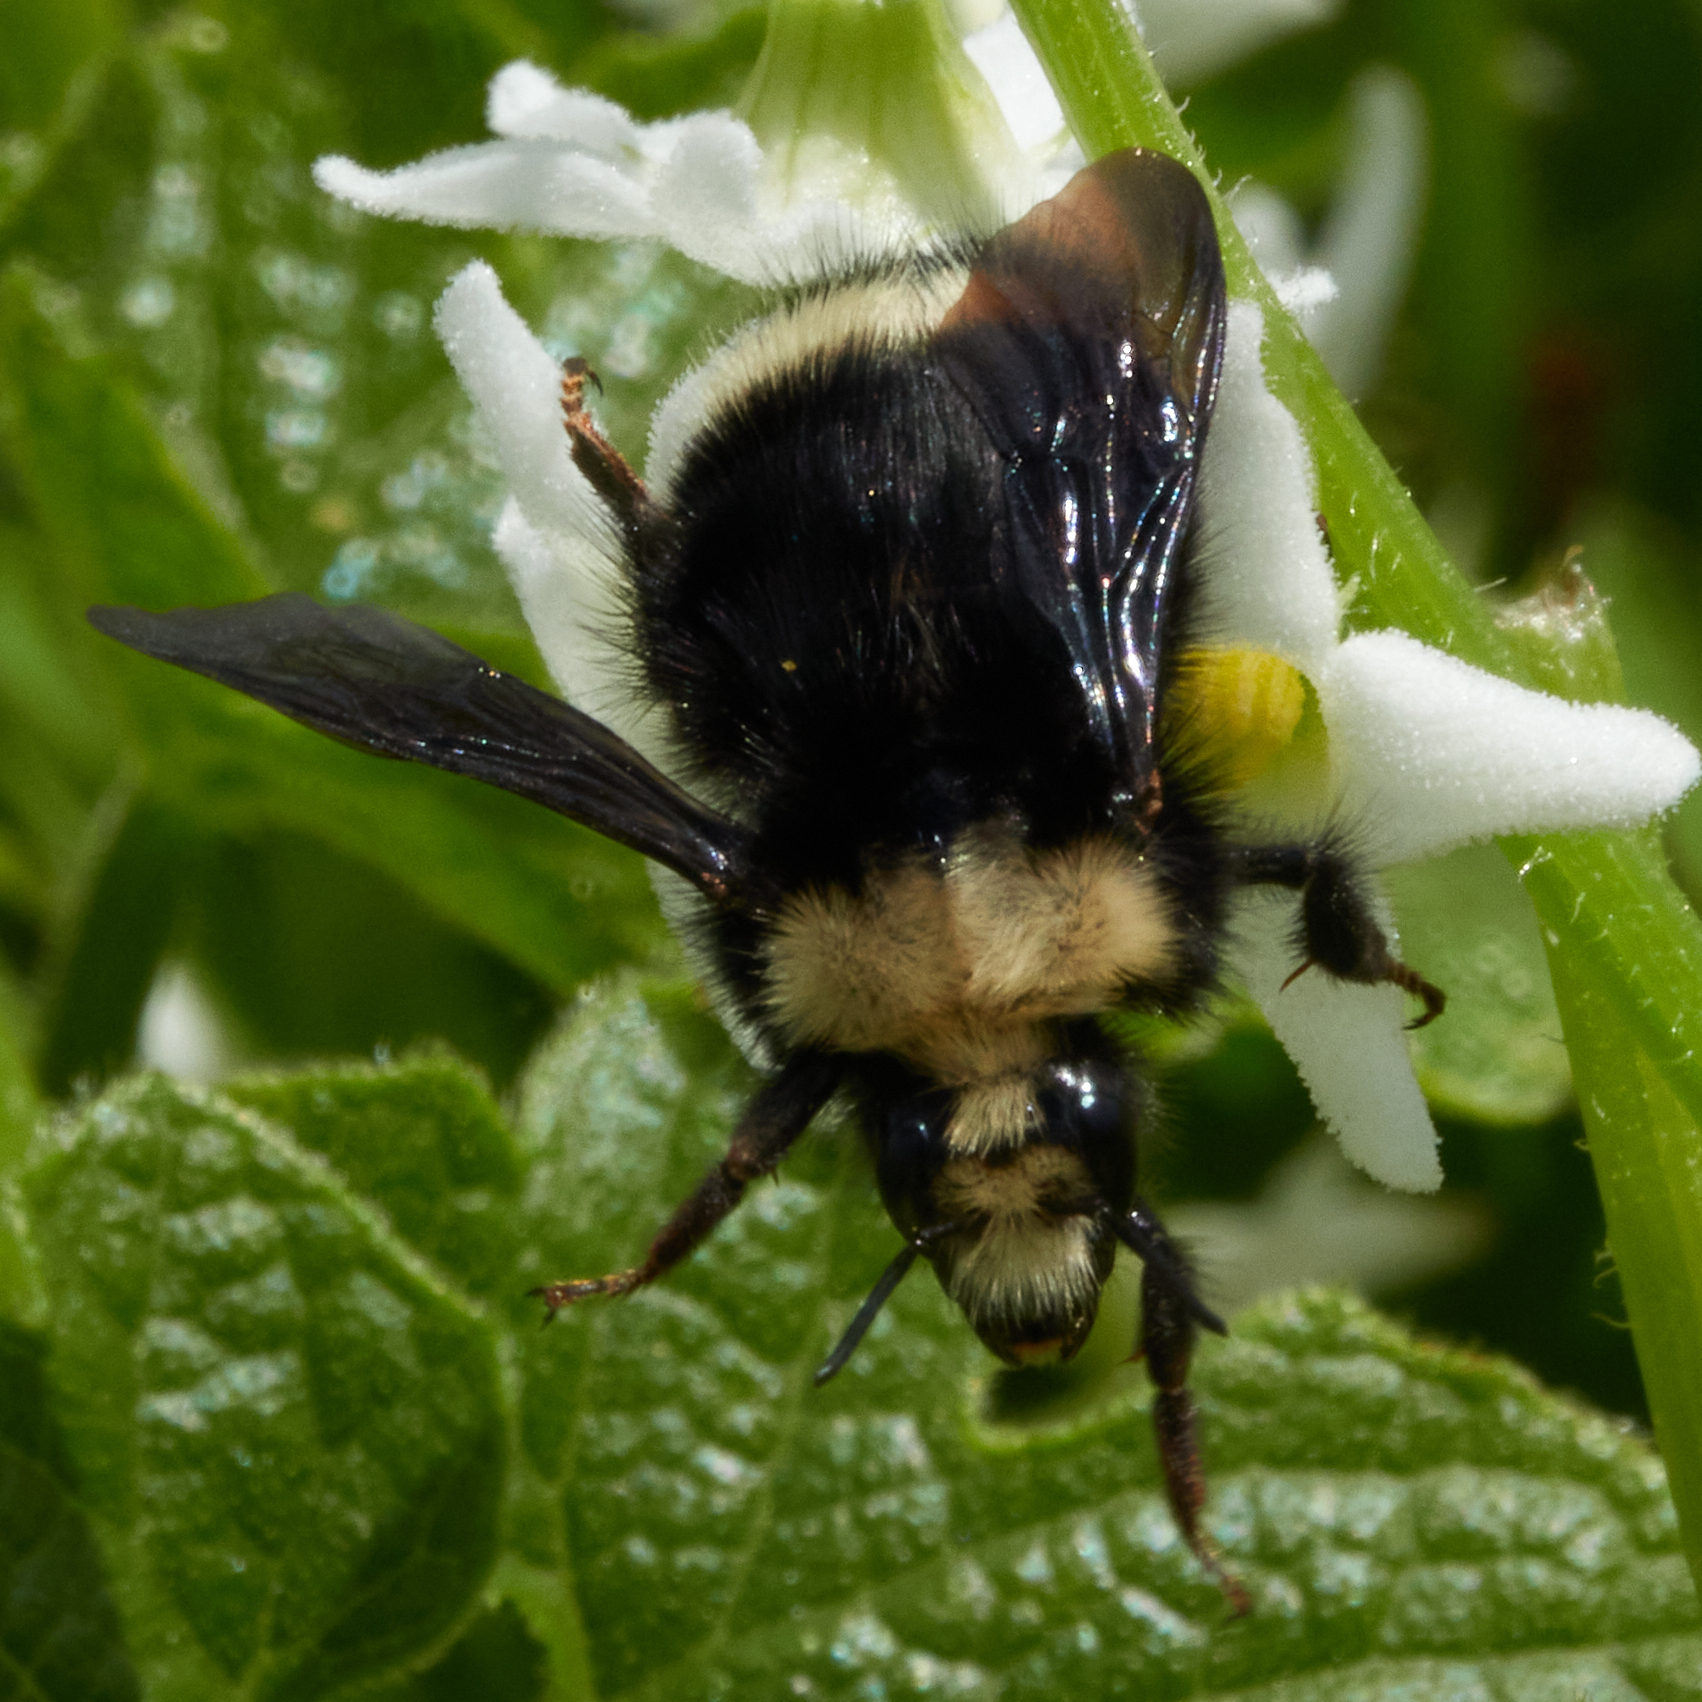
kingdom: Animalia
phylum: Arthropoda
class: Insecta
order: Hymenoptera
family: Apidae
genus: Pyrobombus
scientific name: Pyrobombus
